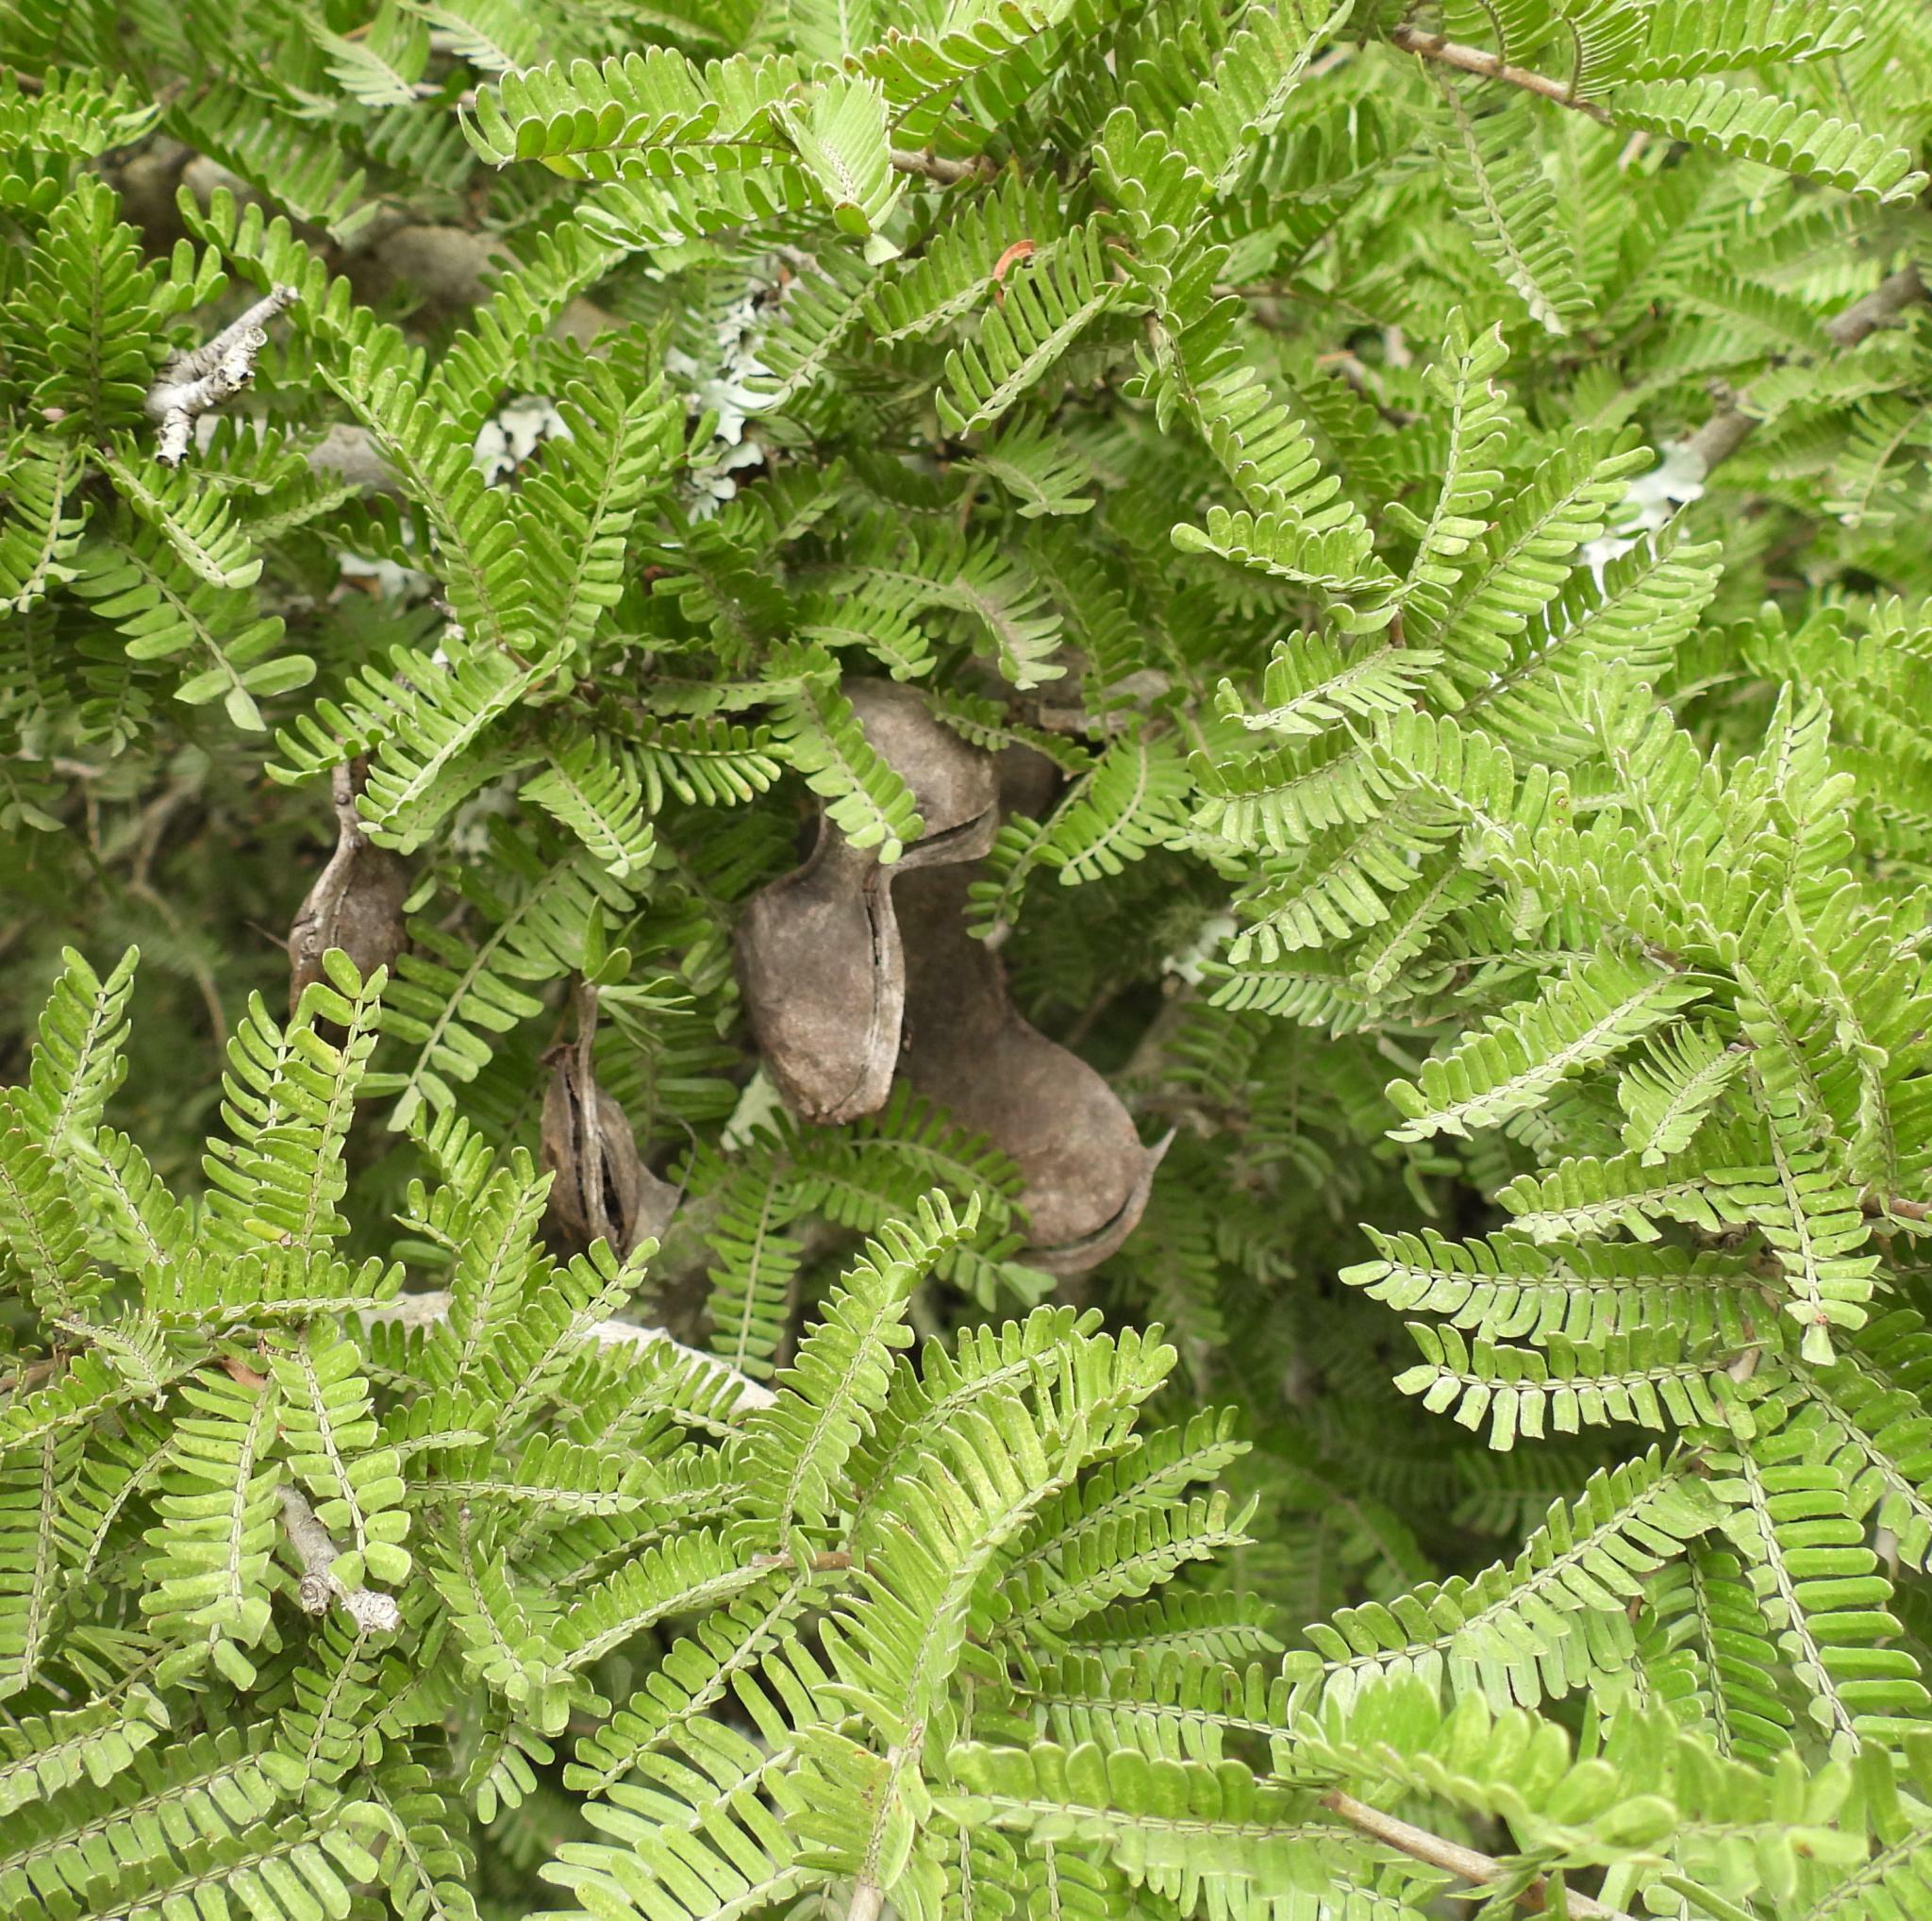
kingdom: Plantae
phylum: Tracheophyta
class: Magnoliopsida
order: Fabales
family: Fabaceae
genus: Schotia
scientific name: Schotia afra
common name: Hottentot's bean
